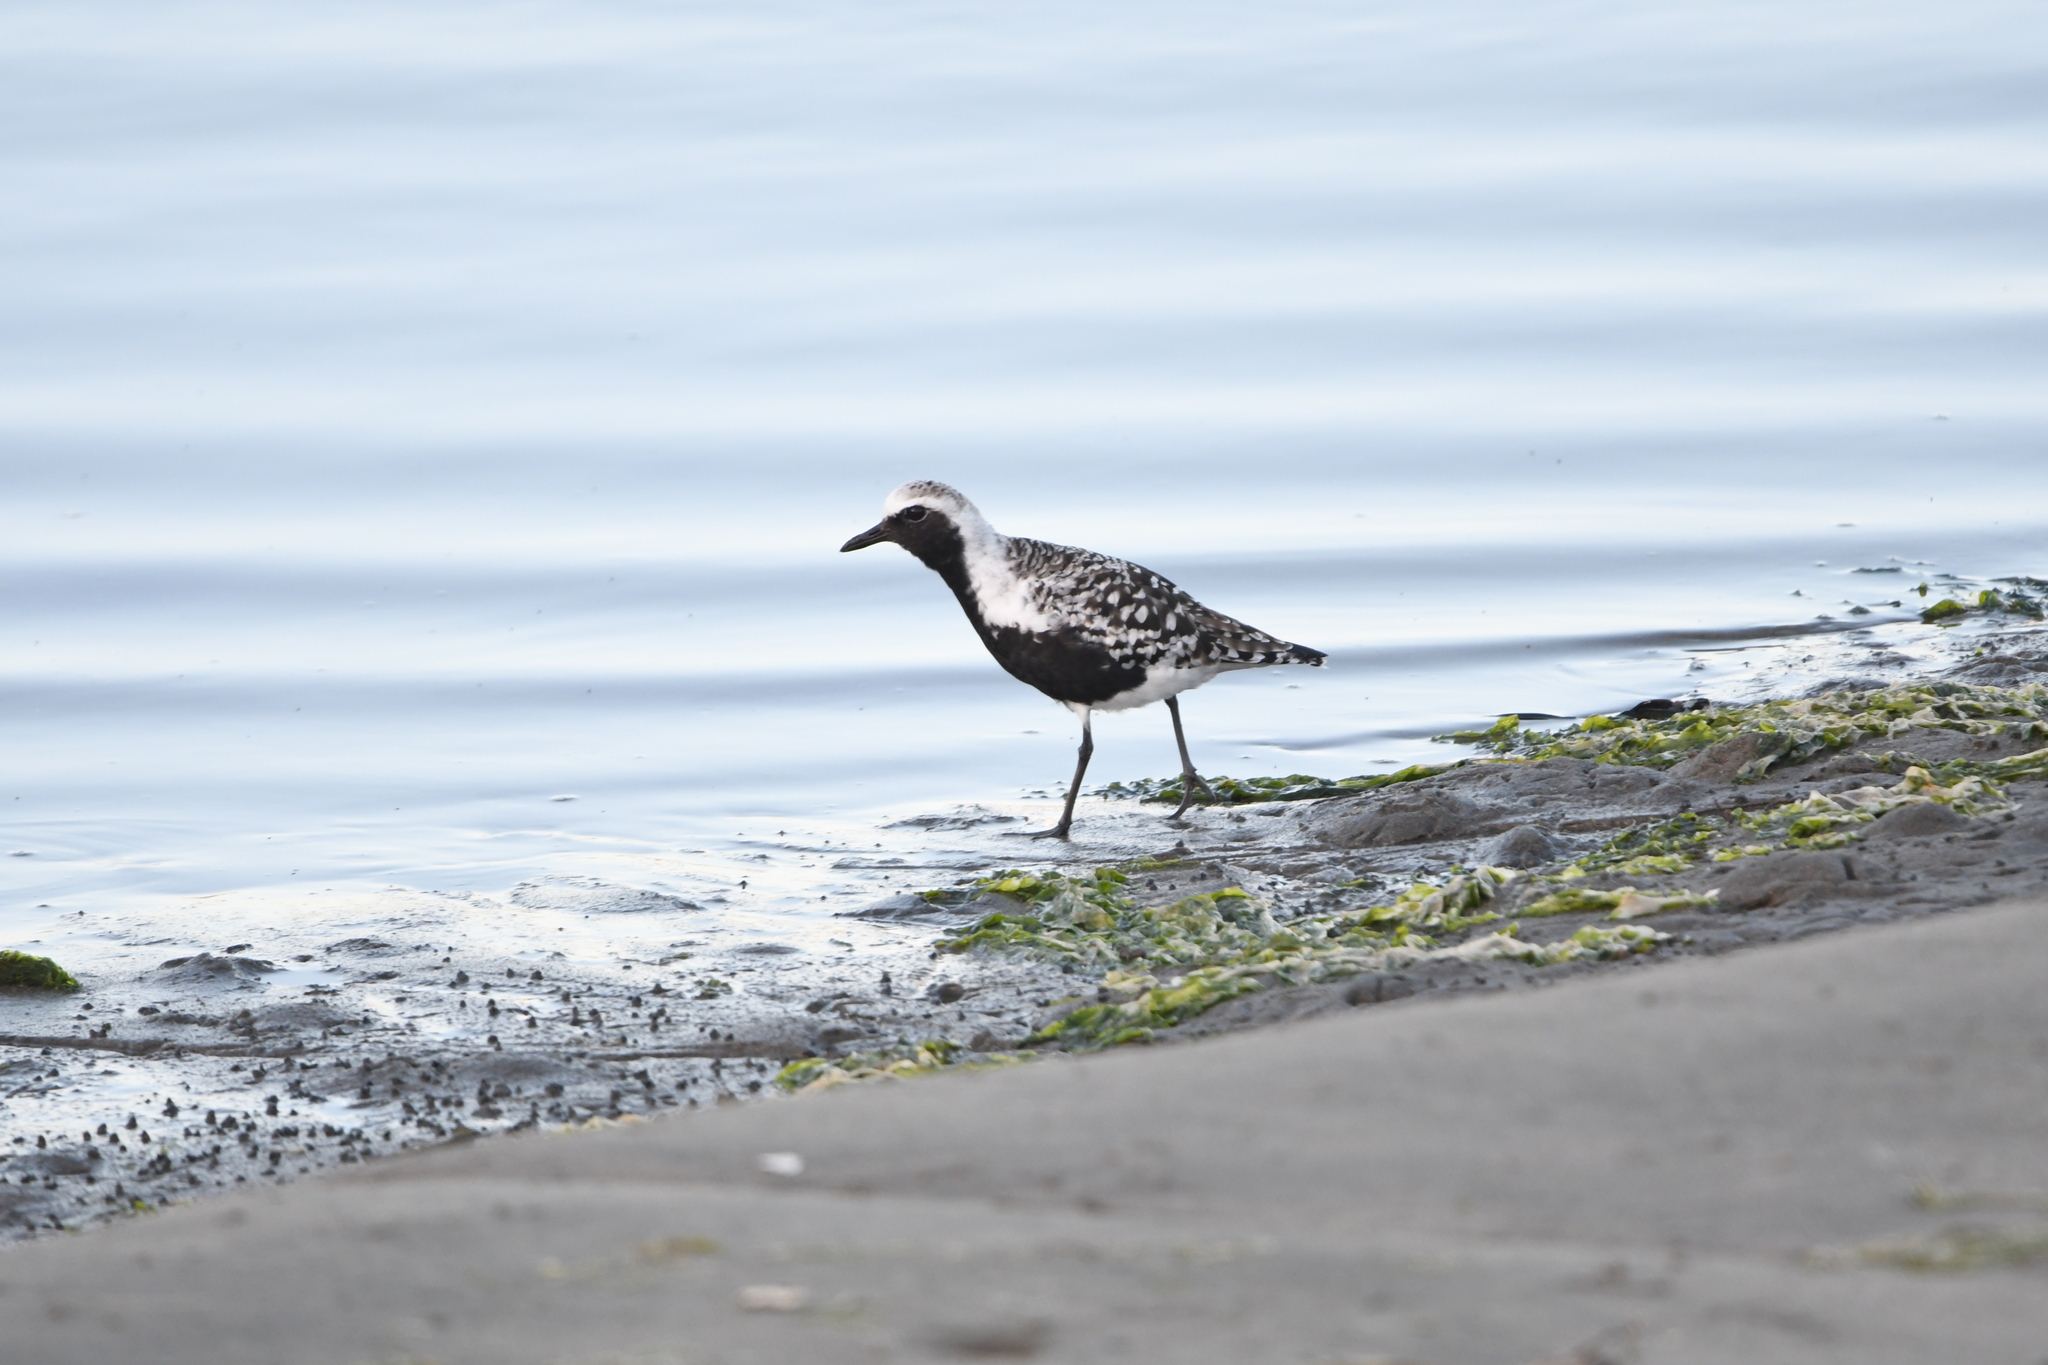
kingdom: Animalia
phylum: Chordata
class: Aves
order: Charadriiformes
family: Charadriidae
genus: Pluvialis
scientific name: Pluvialis squatarola
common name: Grey plover
